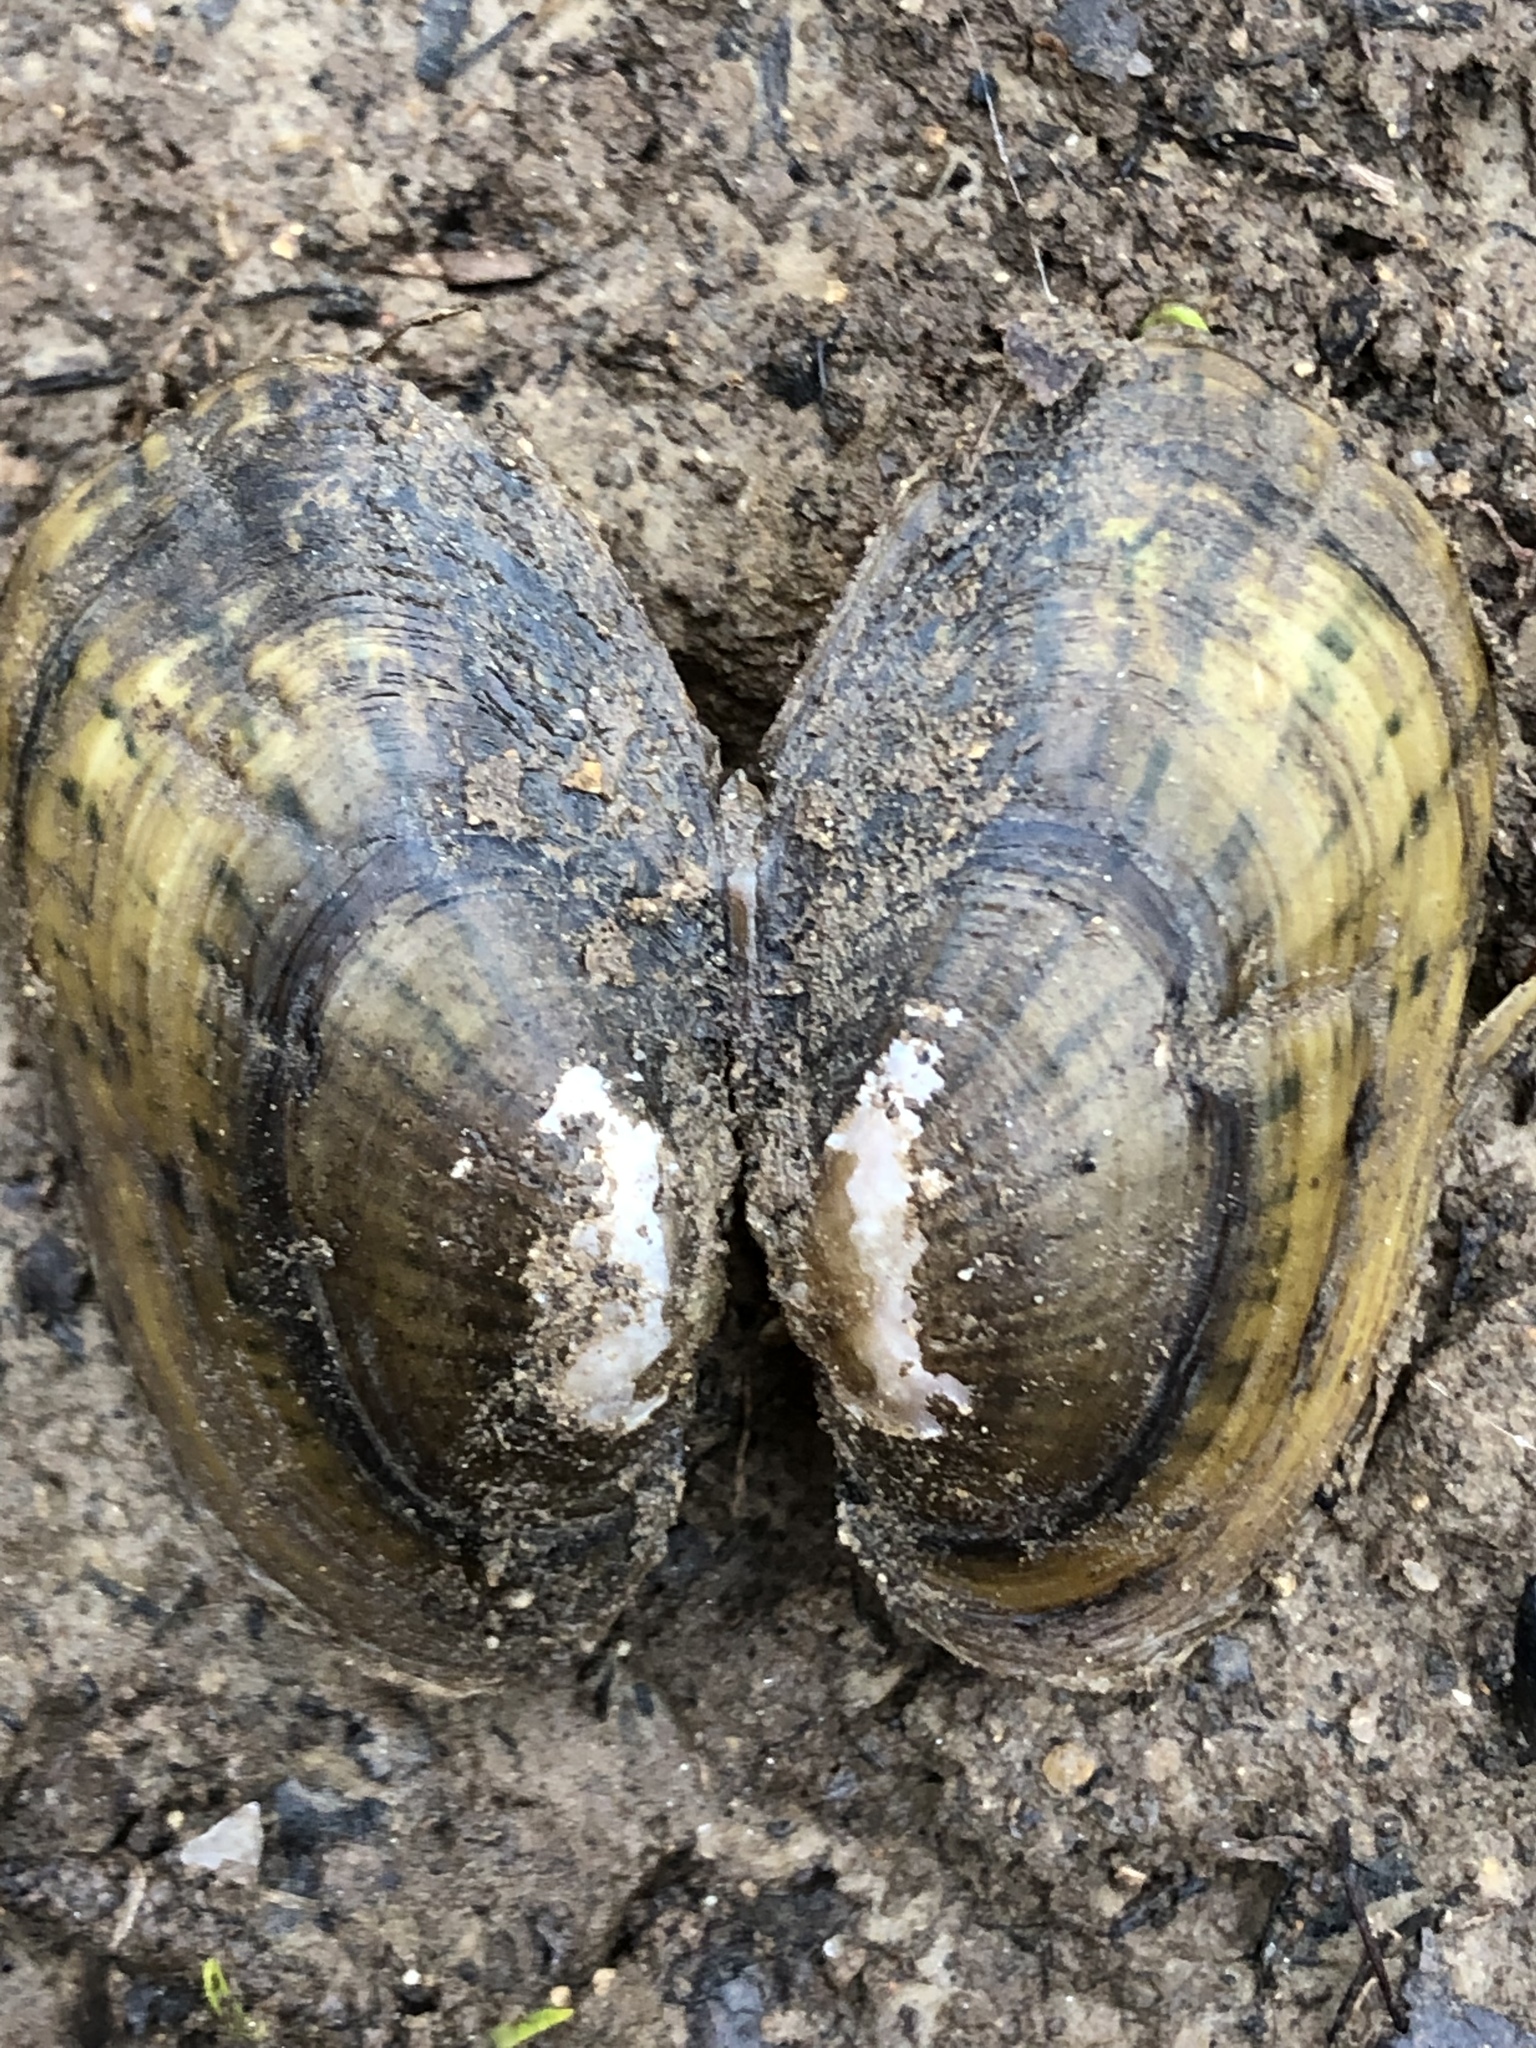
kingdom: Animalia
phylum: Mollusca
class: Bivalvia
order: Unionida
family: Unionidae
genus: Villosa
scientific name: Villosa delumbis
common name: Eastern creekshell
